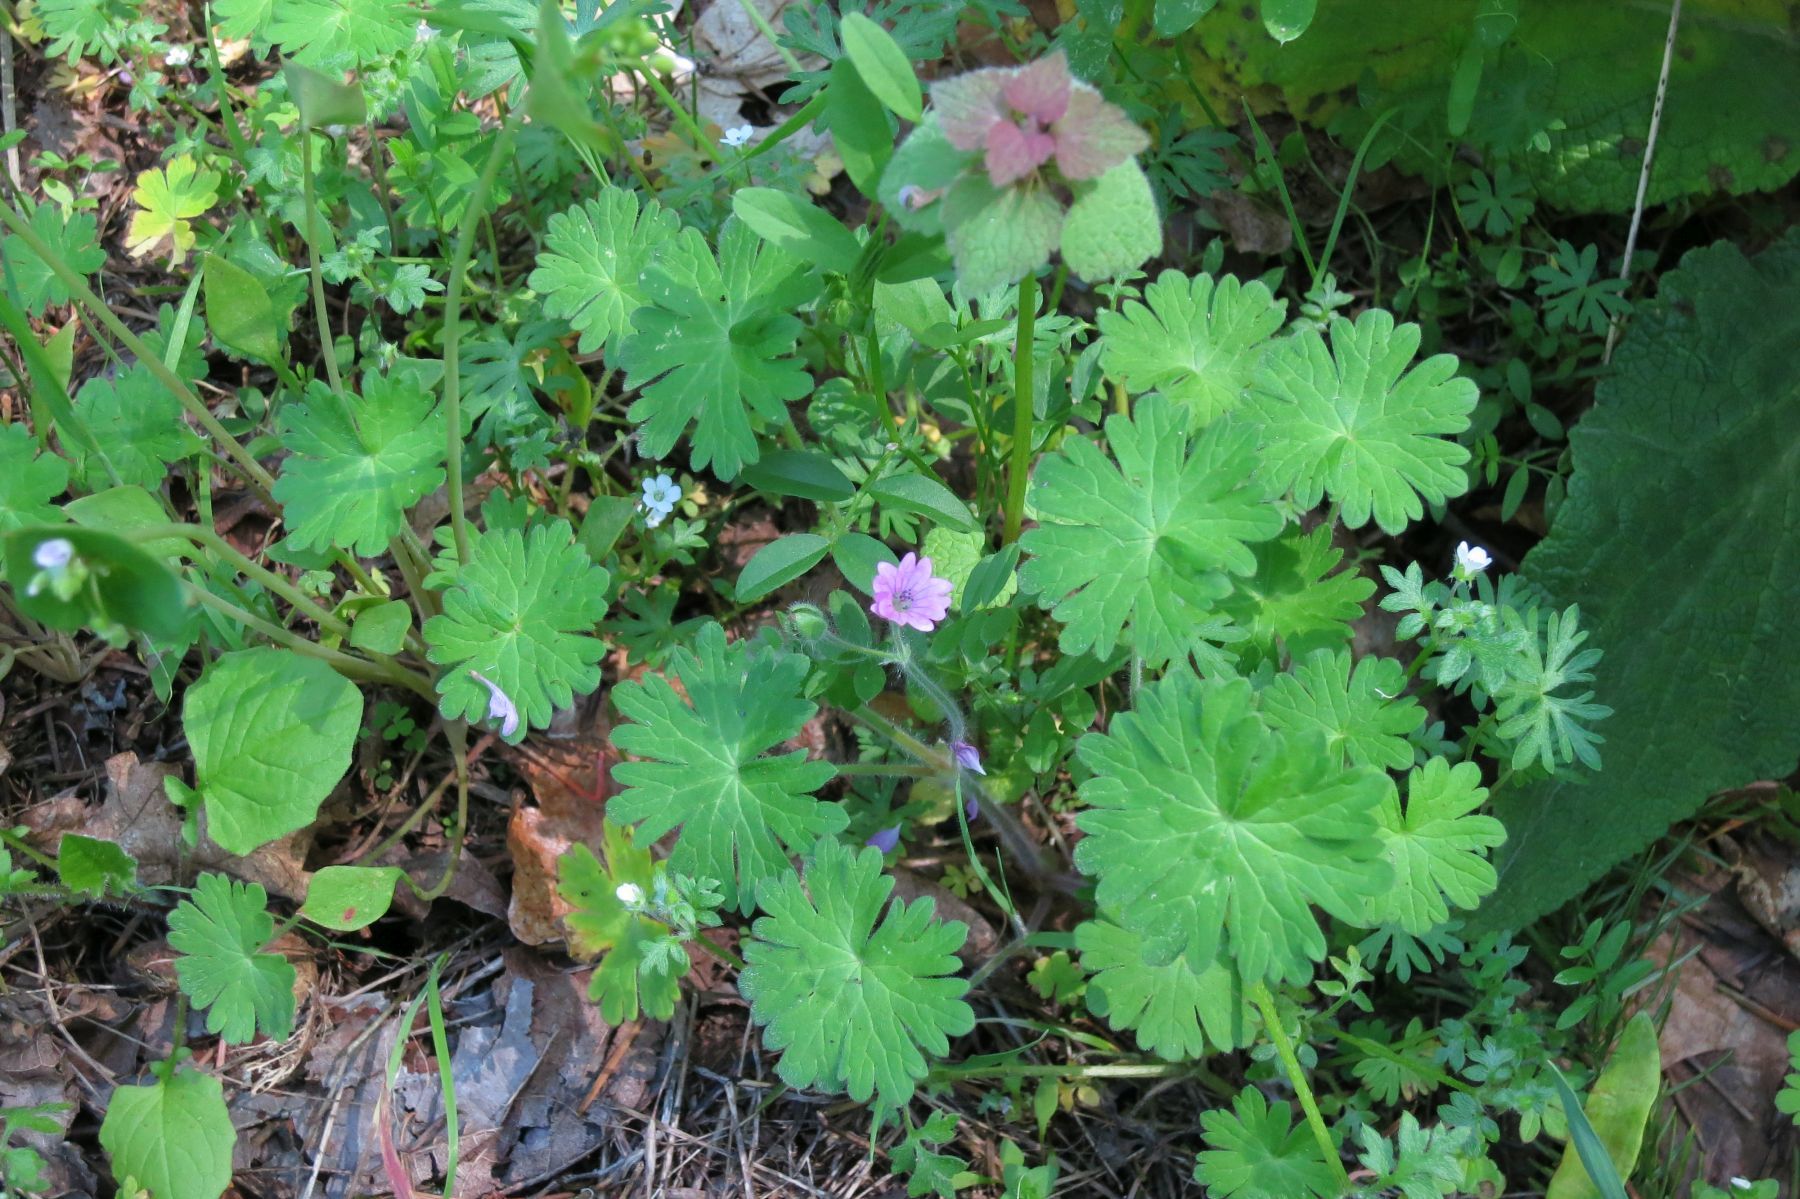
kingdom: Plantae
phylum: Tracheophyta
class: Magnoliopsida
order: Geraniales
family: Geraniaceae
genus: Geranium
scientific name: Geranium molle
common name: Dove's-foot crane's-bill
